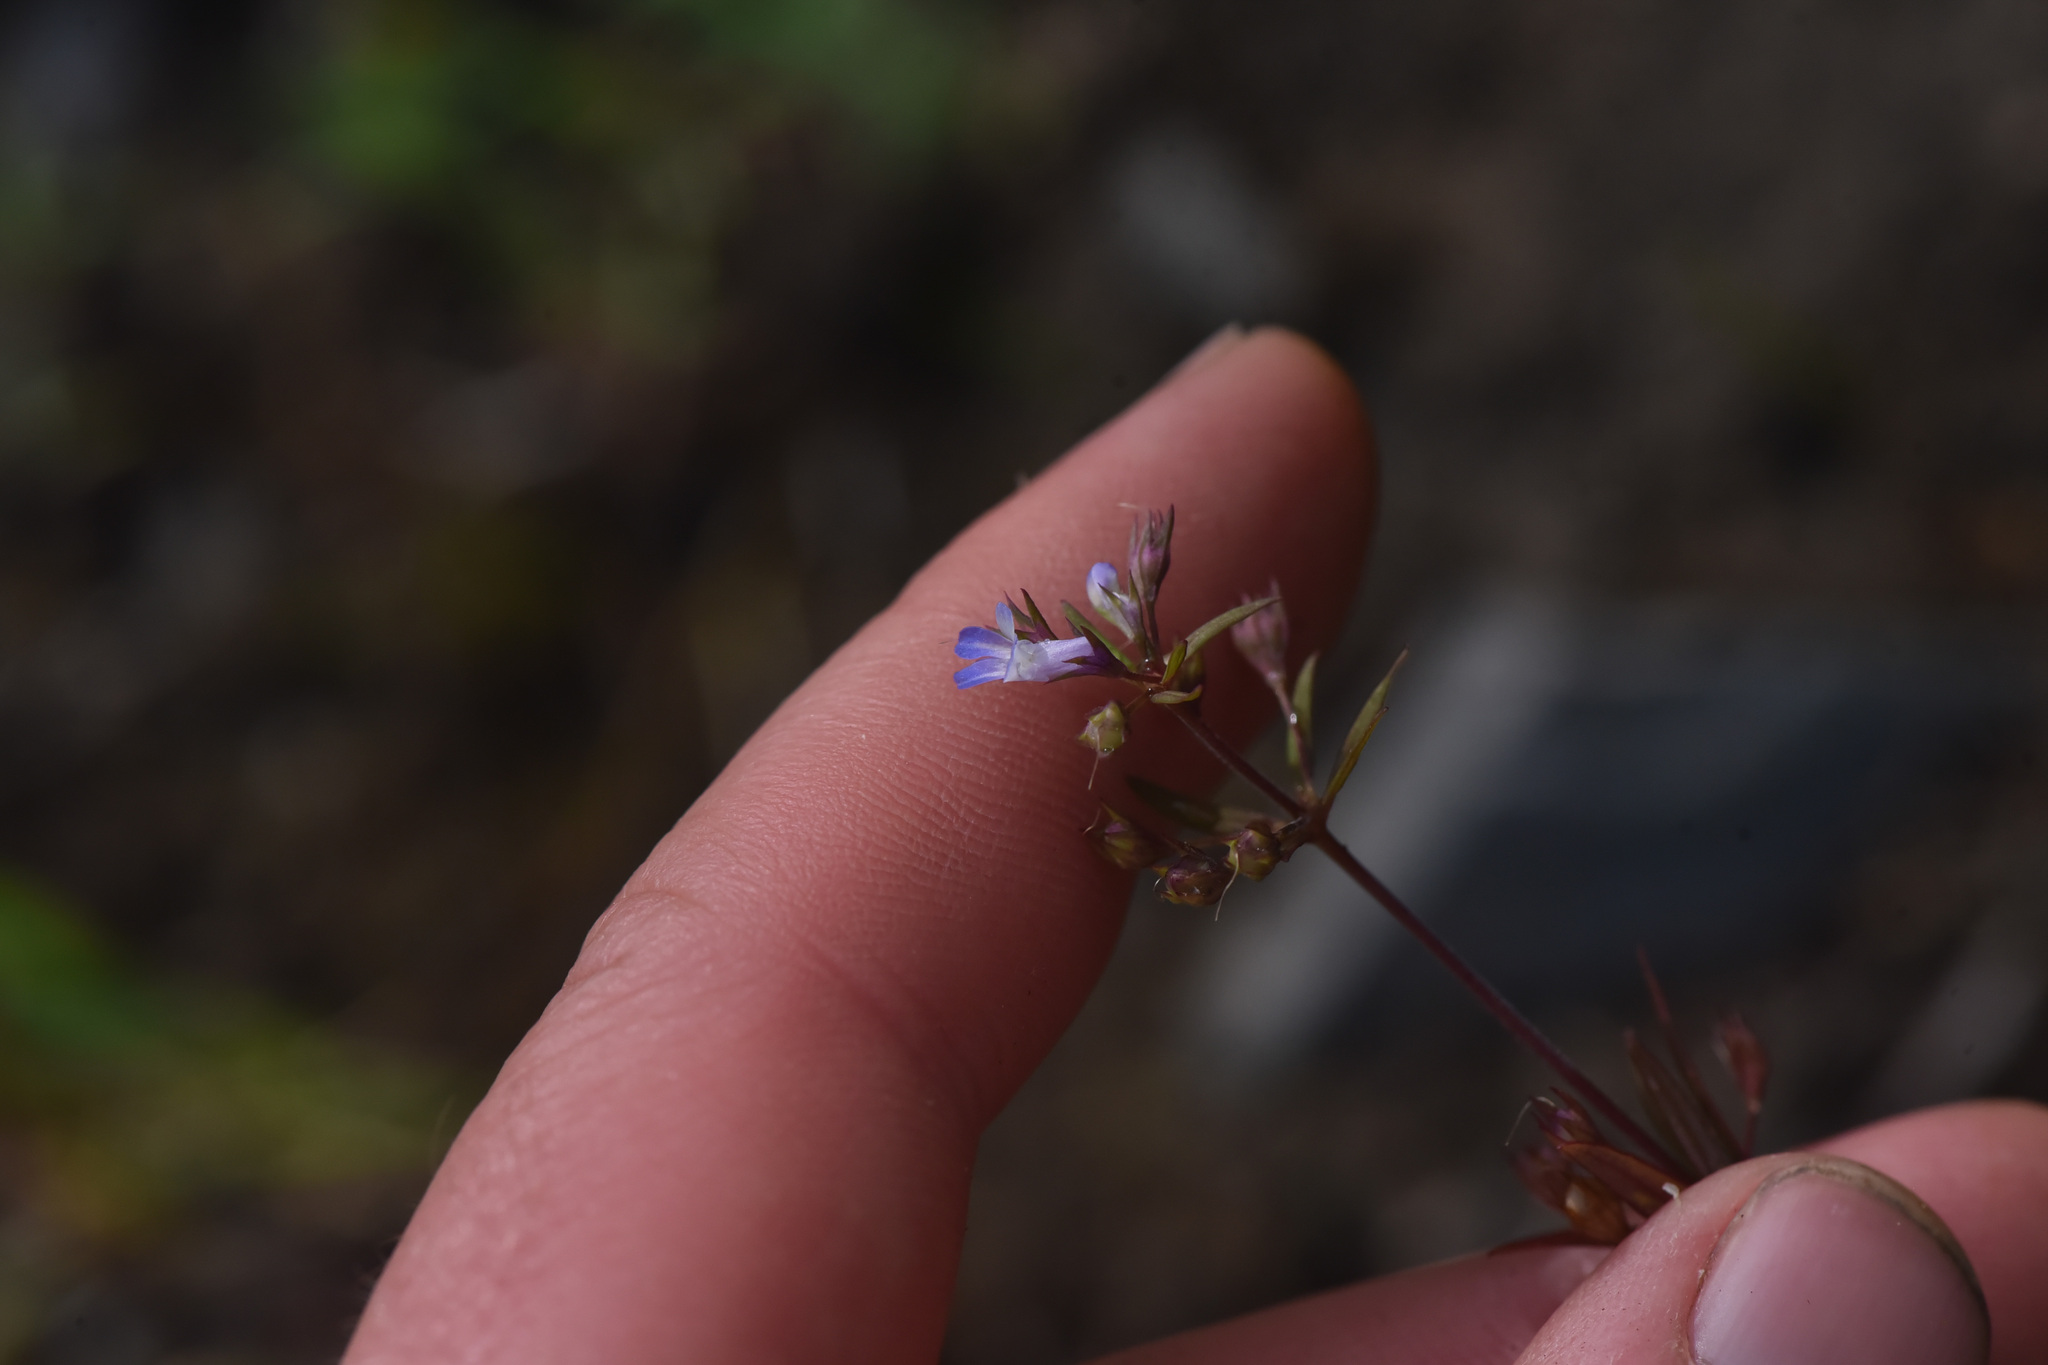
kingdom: Plantae
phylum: Tracheophyta
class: Magnoliopsida
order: Lamiales
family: Plantaginaceae
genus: Collinsia
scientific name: Collinsia parviflora
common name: Blue-lips
